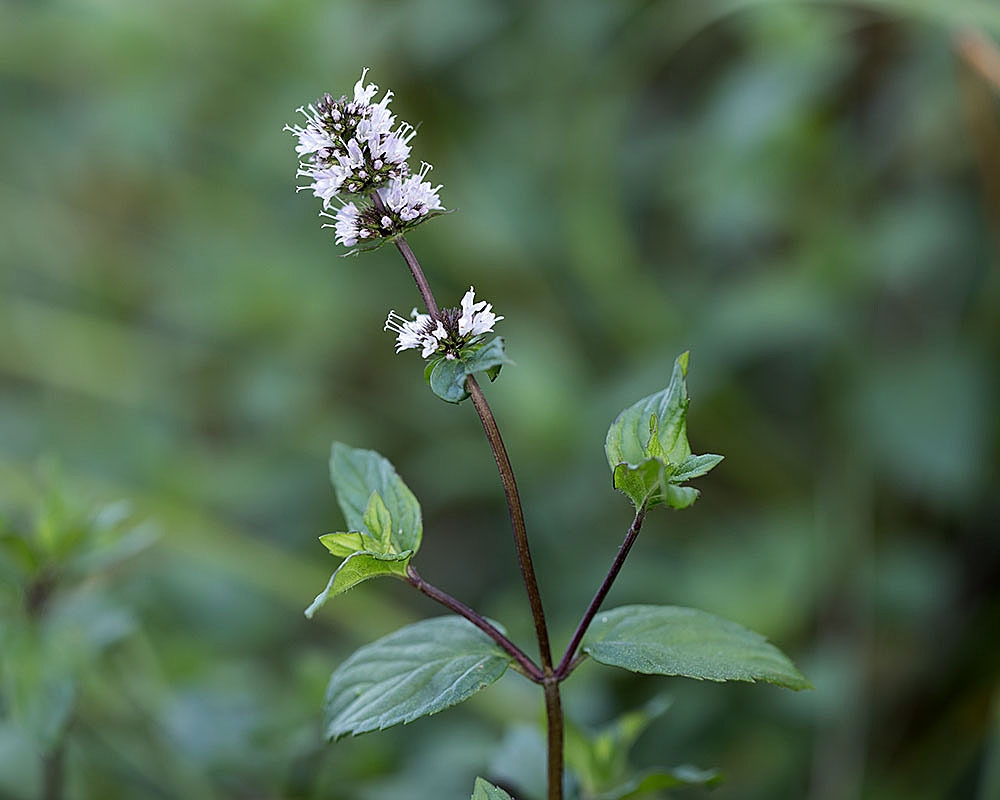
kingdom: Plantae
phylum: Tracheophyta
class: Magnoliopsida
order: Lamiales
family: Lamiaceae
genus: Mentha
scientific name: Mentha piperita
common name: Peppermint
